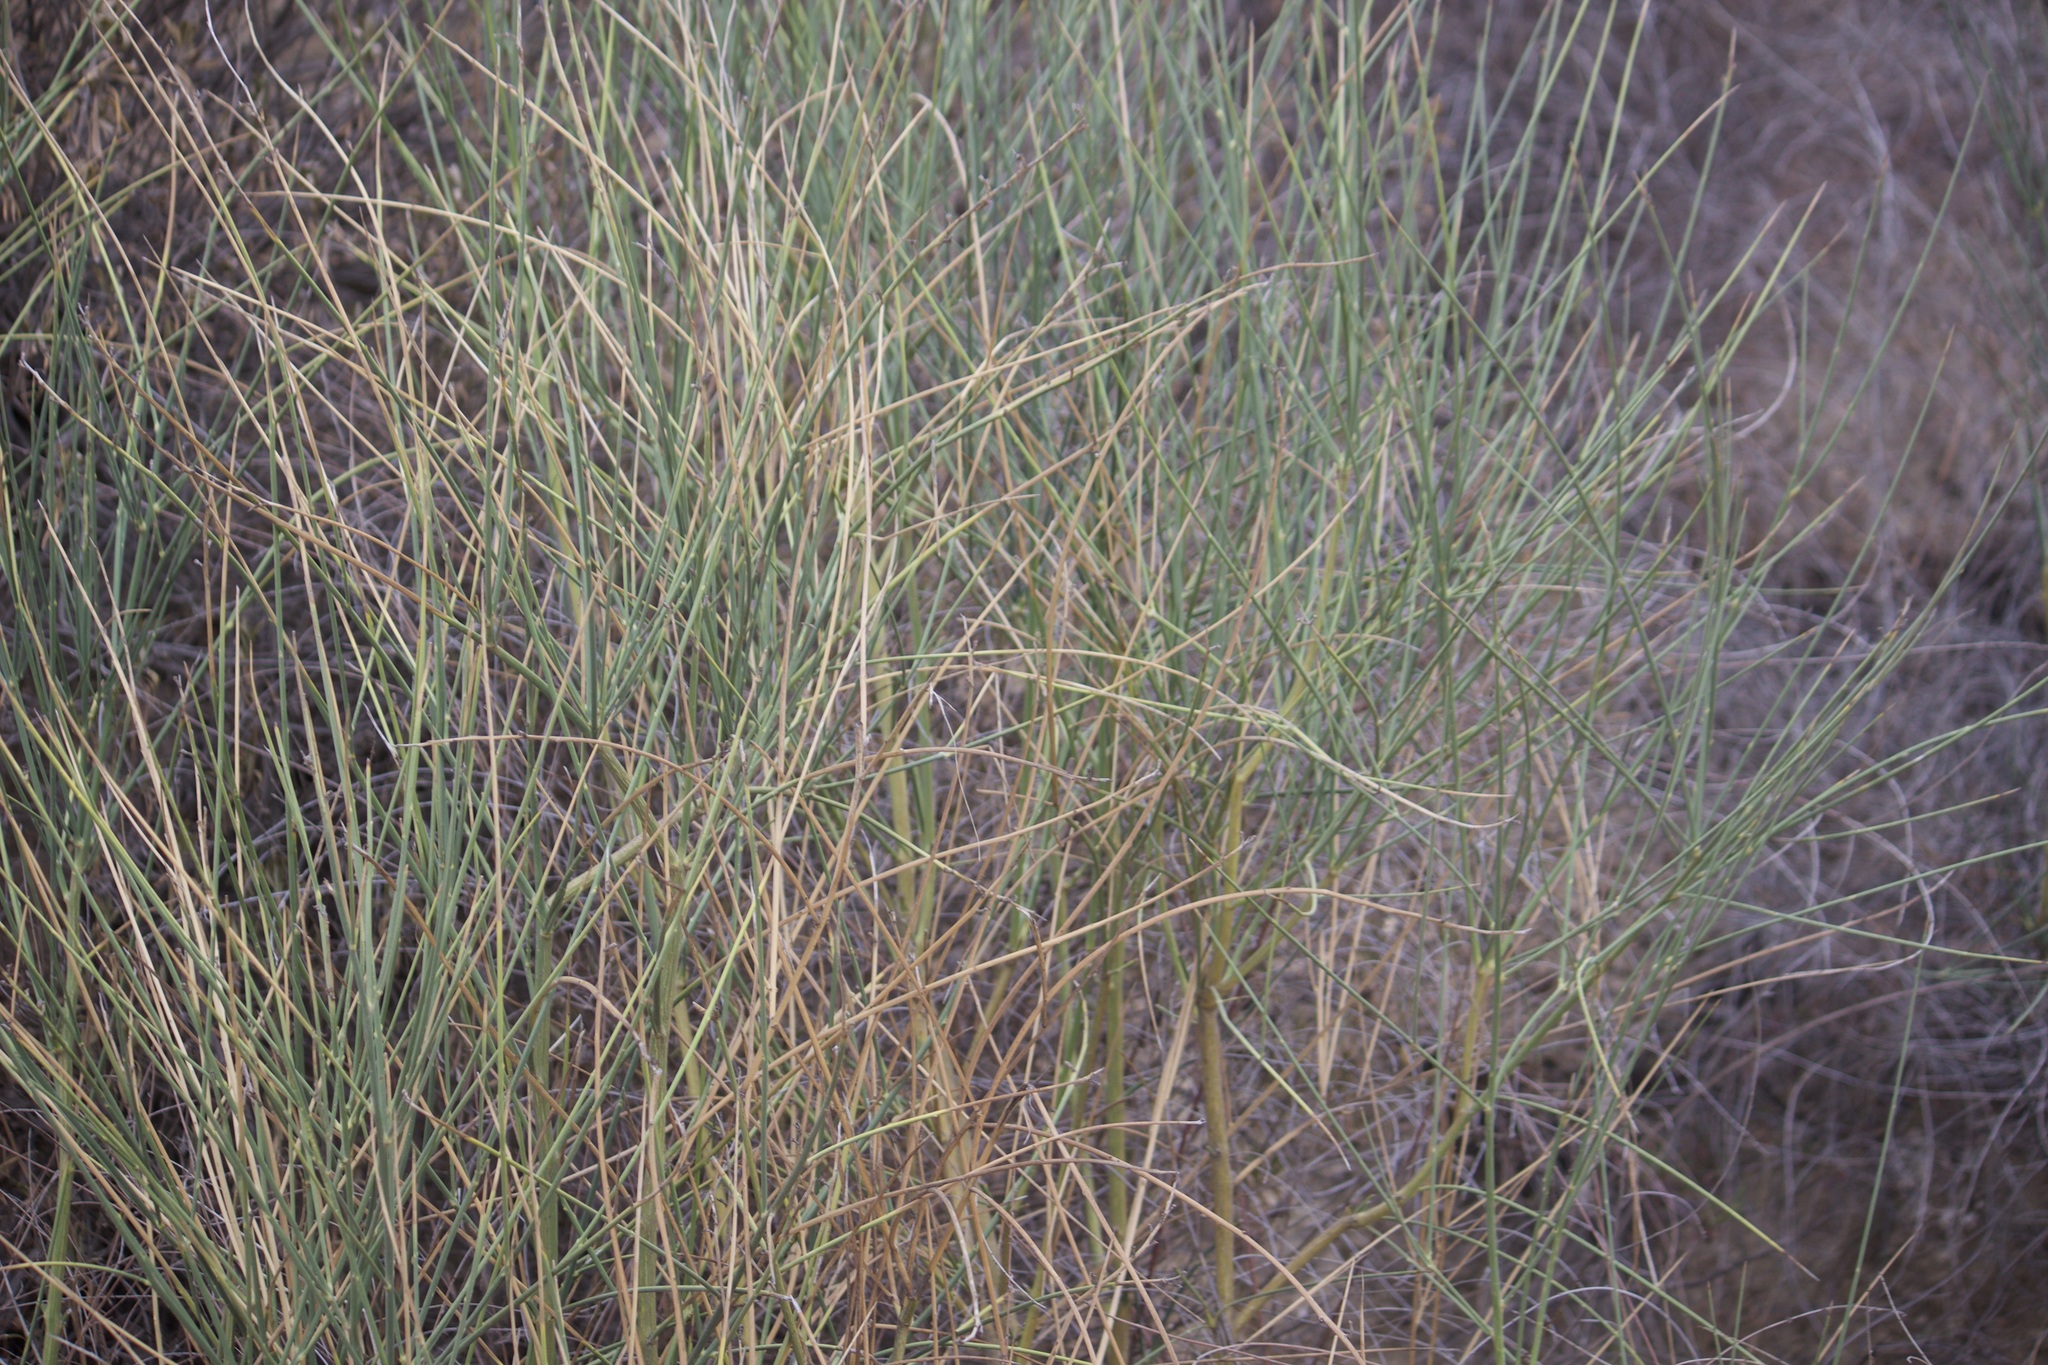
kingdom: Plantae
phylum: Tracheophyta
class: Magnoliopsida
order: Fabales
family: Fabaceae
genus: Spartium
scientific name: Spartium junceum
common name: Spanish broom
